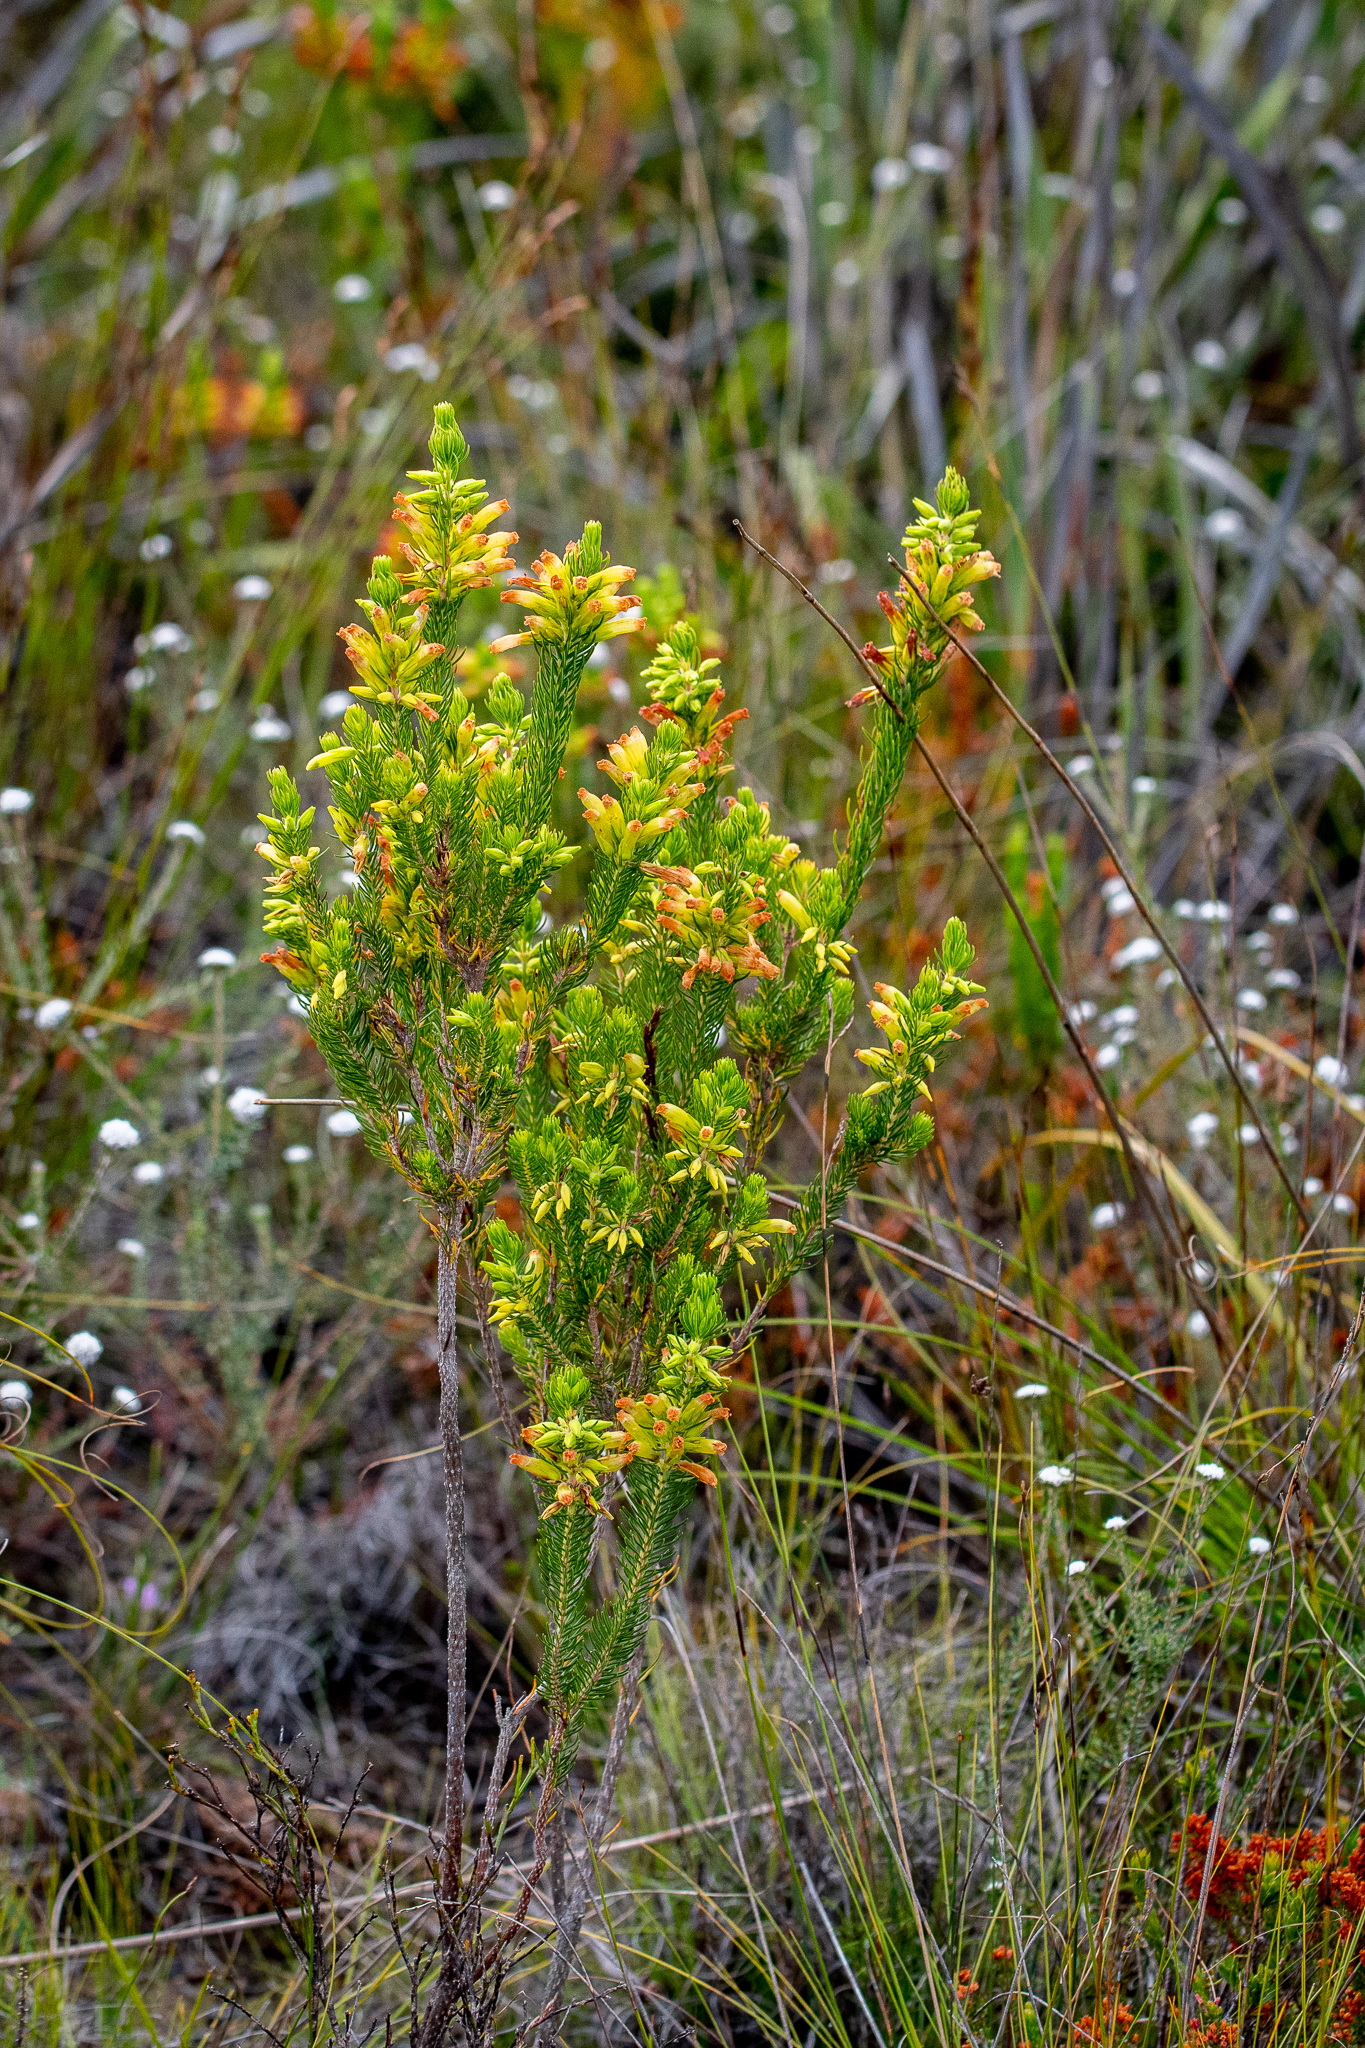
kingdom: Plantae
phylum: Tracheophyta
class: Magnoliopsida
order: Ericales
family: Ericaceae
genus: Erica
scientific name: Erica viscaria
